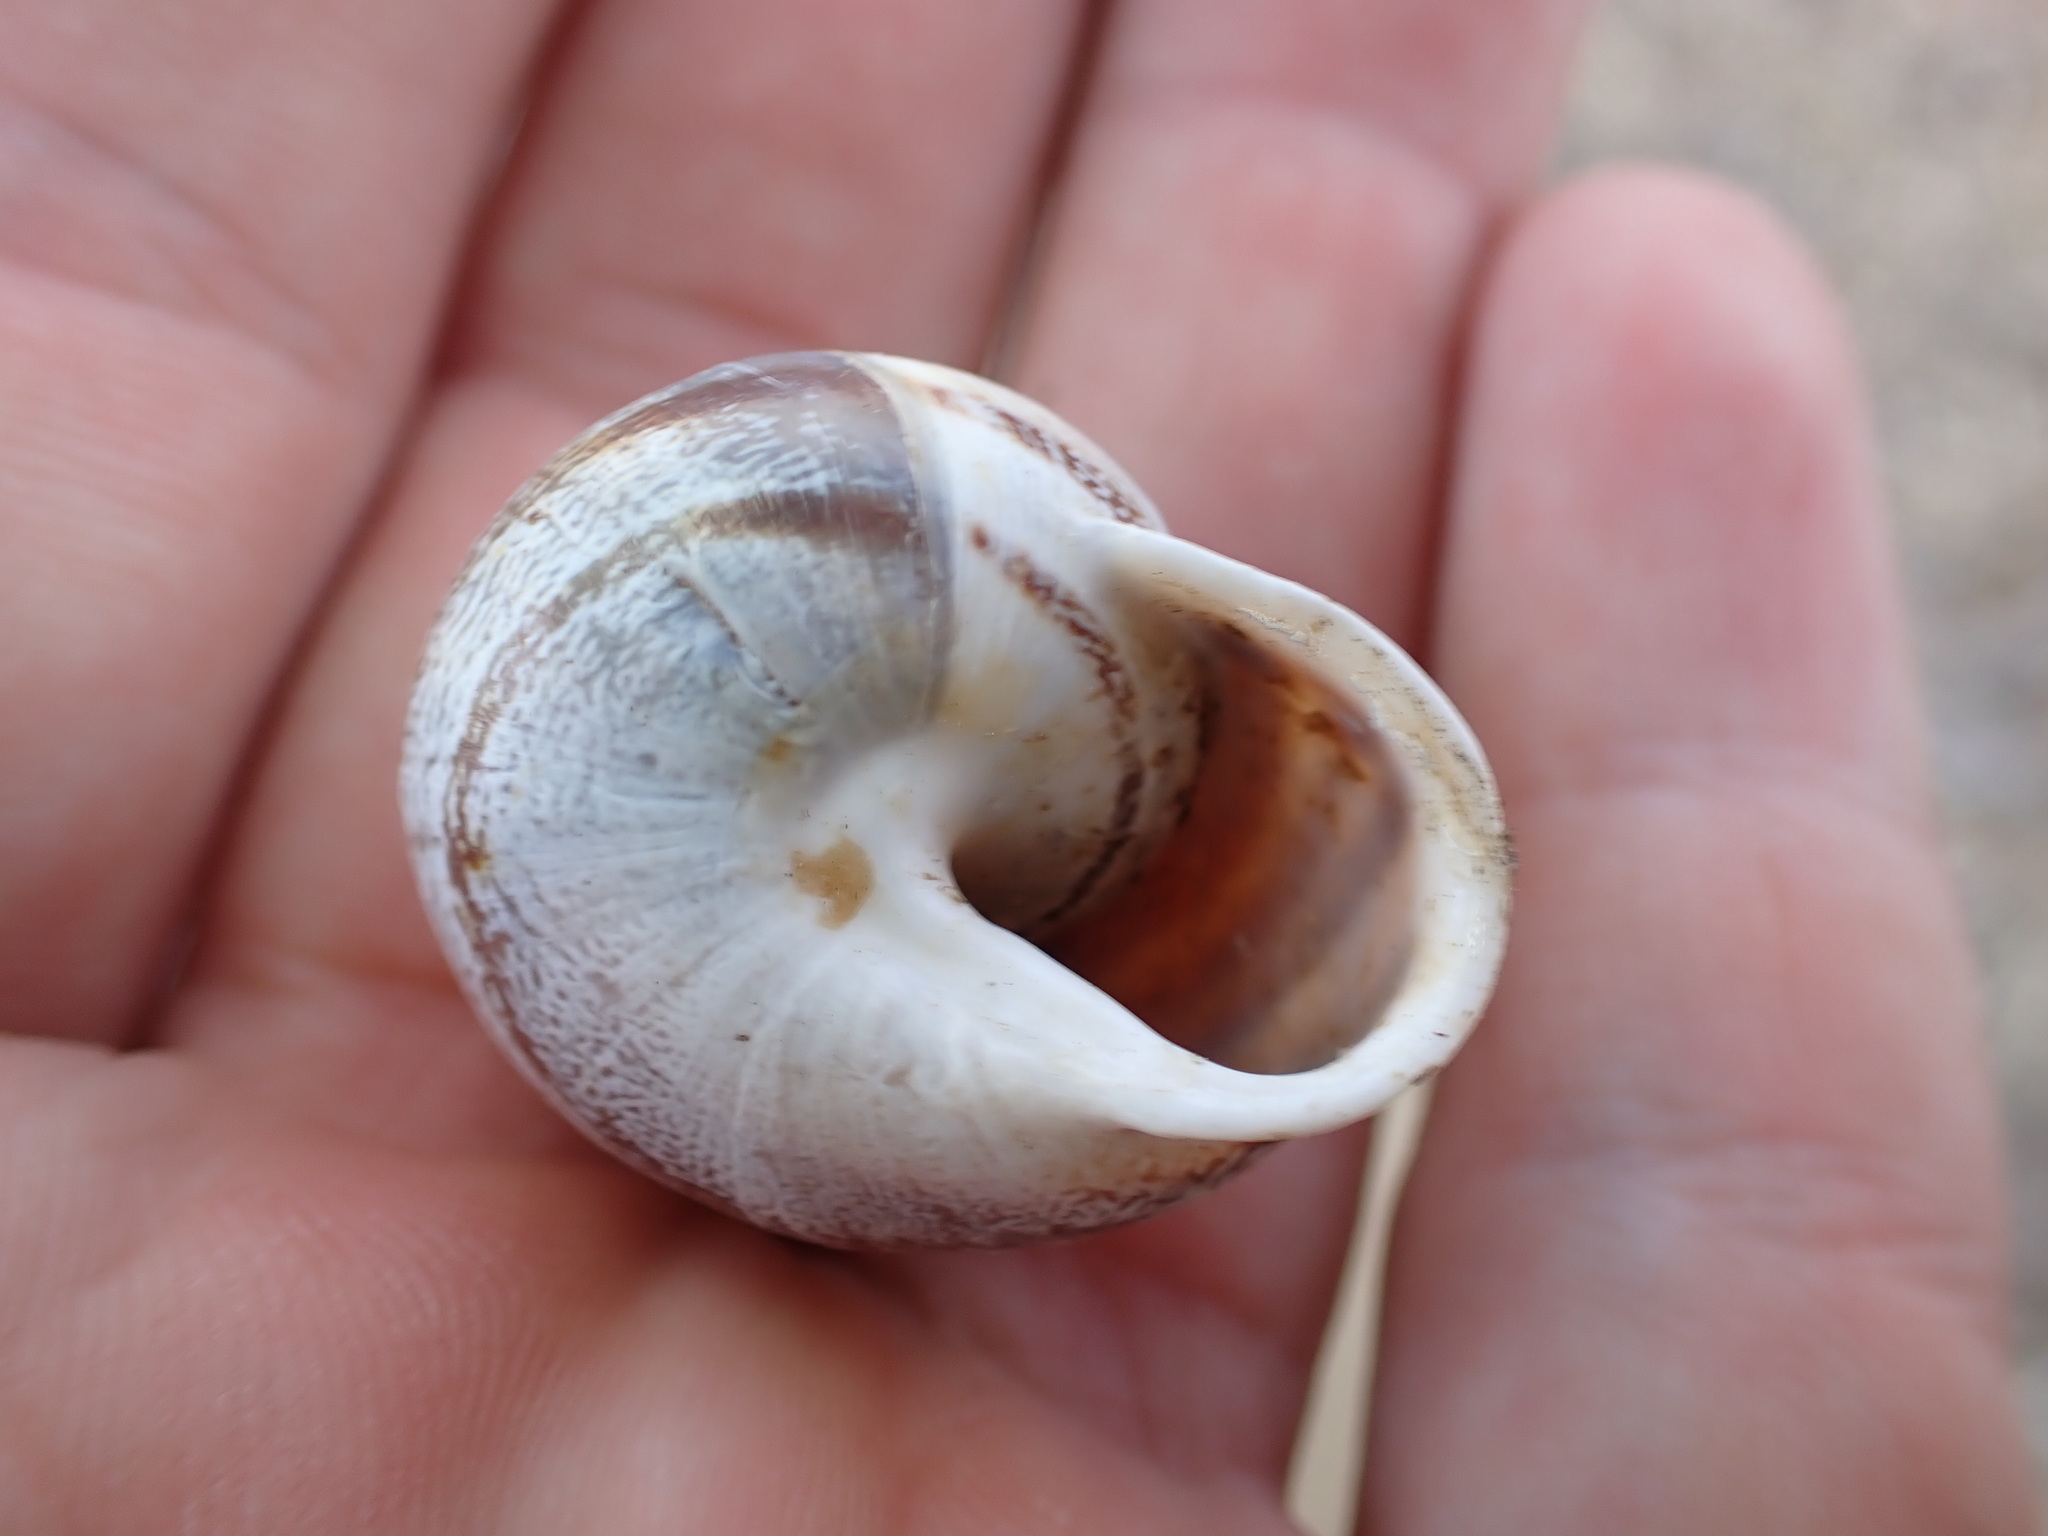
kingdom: Animalia
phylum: Mollusca
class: Gastropoda
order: Stylommatophora
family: Helicidae
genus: Eobania
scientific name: Eobania vermiculata
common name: Chocolateband snail
